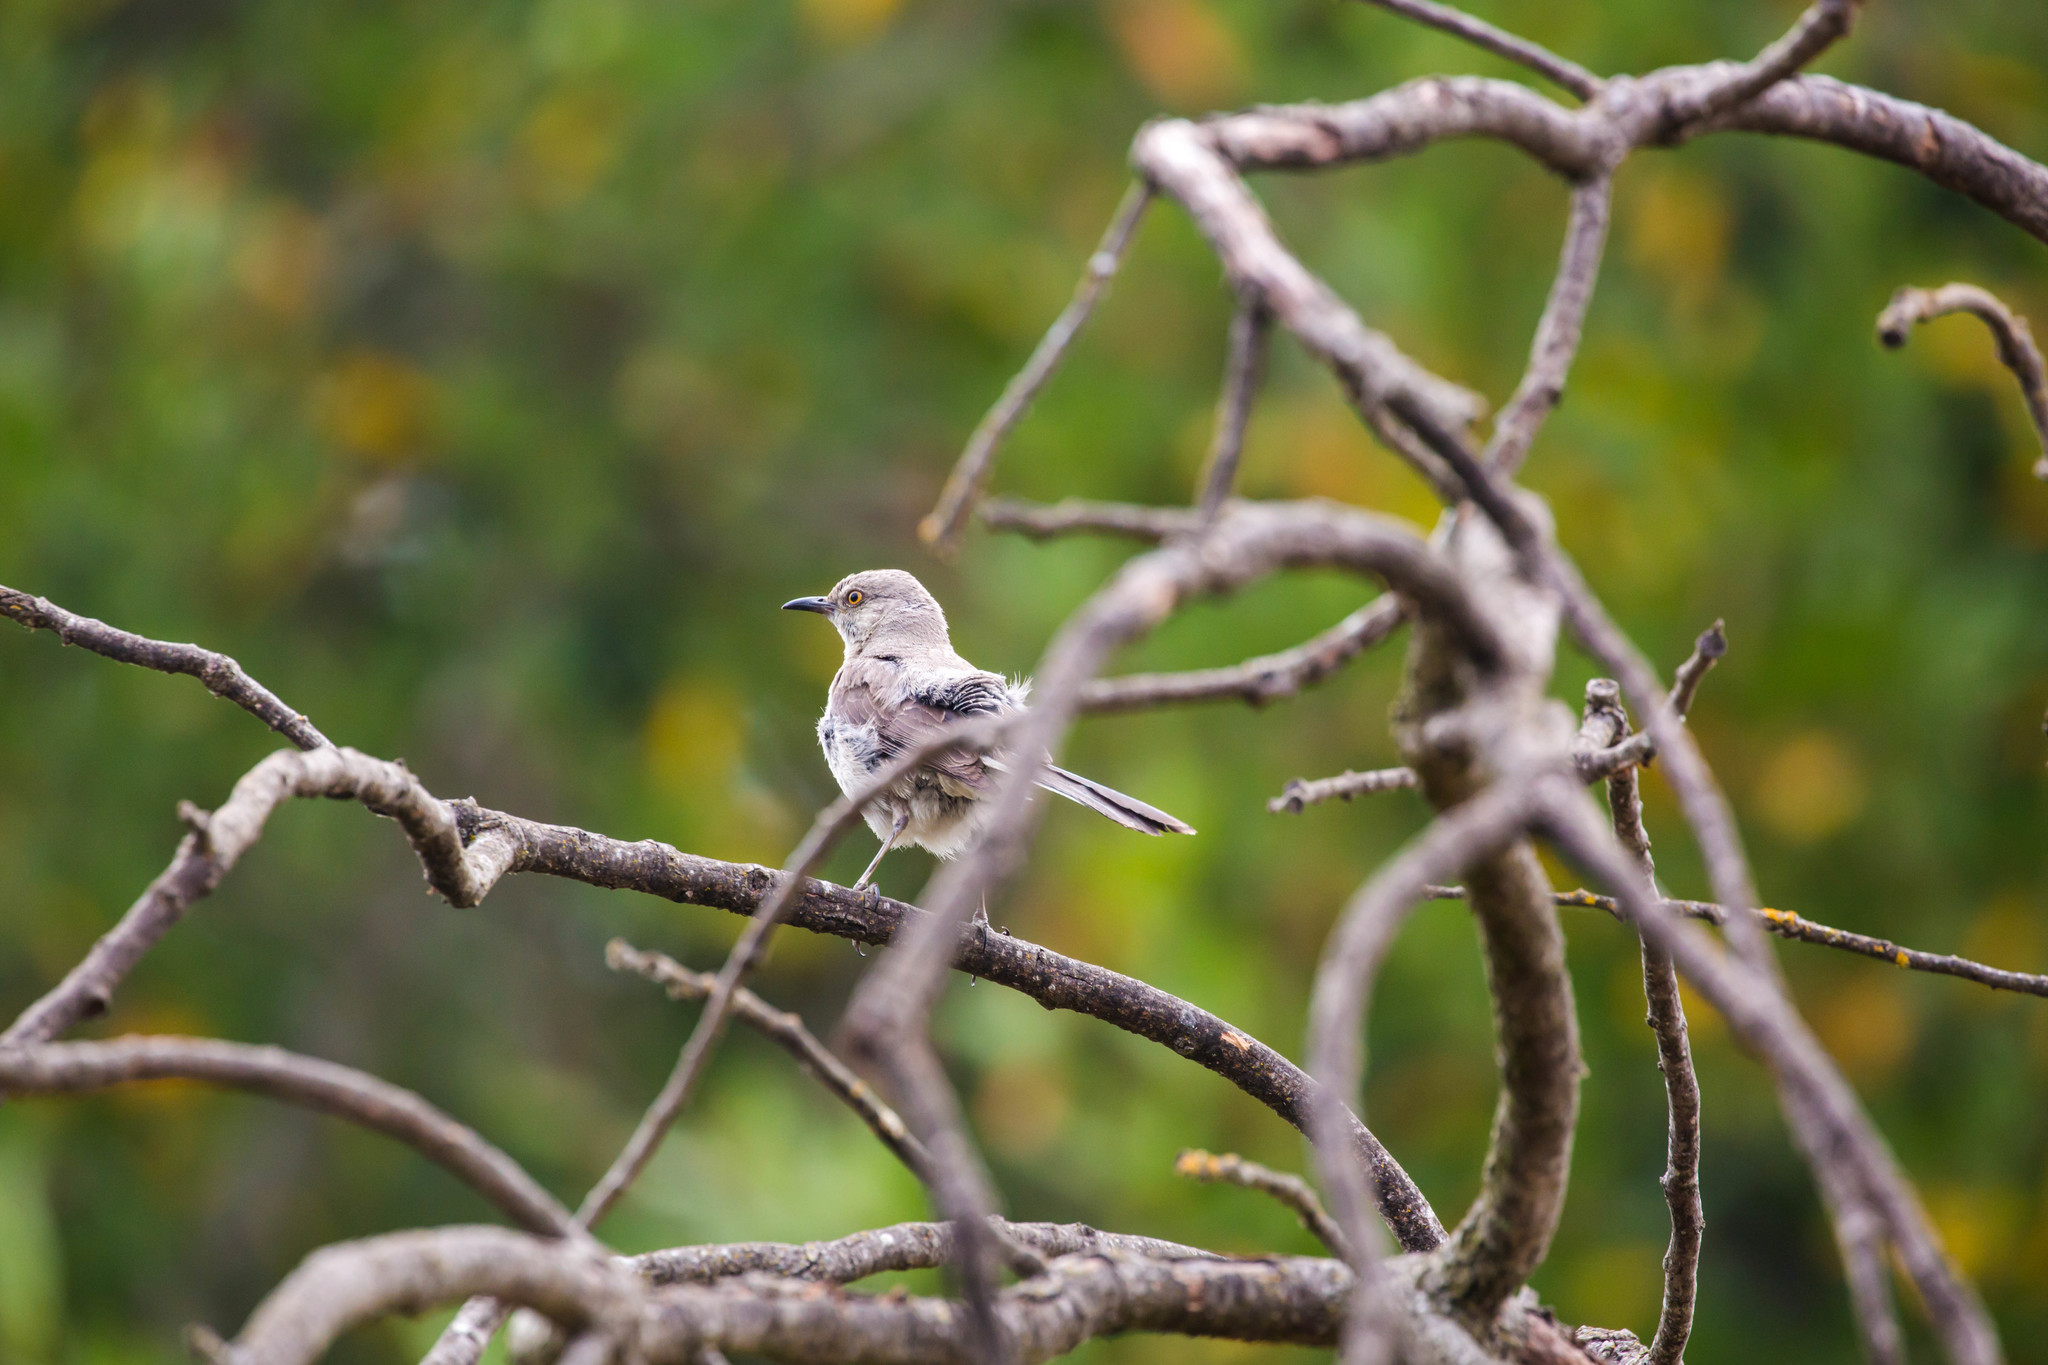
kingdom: Animalia
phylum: Chordata
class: Aves
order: Passeriformes
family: Mimidae
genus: Mimus
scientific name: Mimus polyglottos
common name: Northern mockingbird
